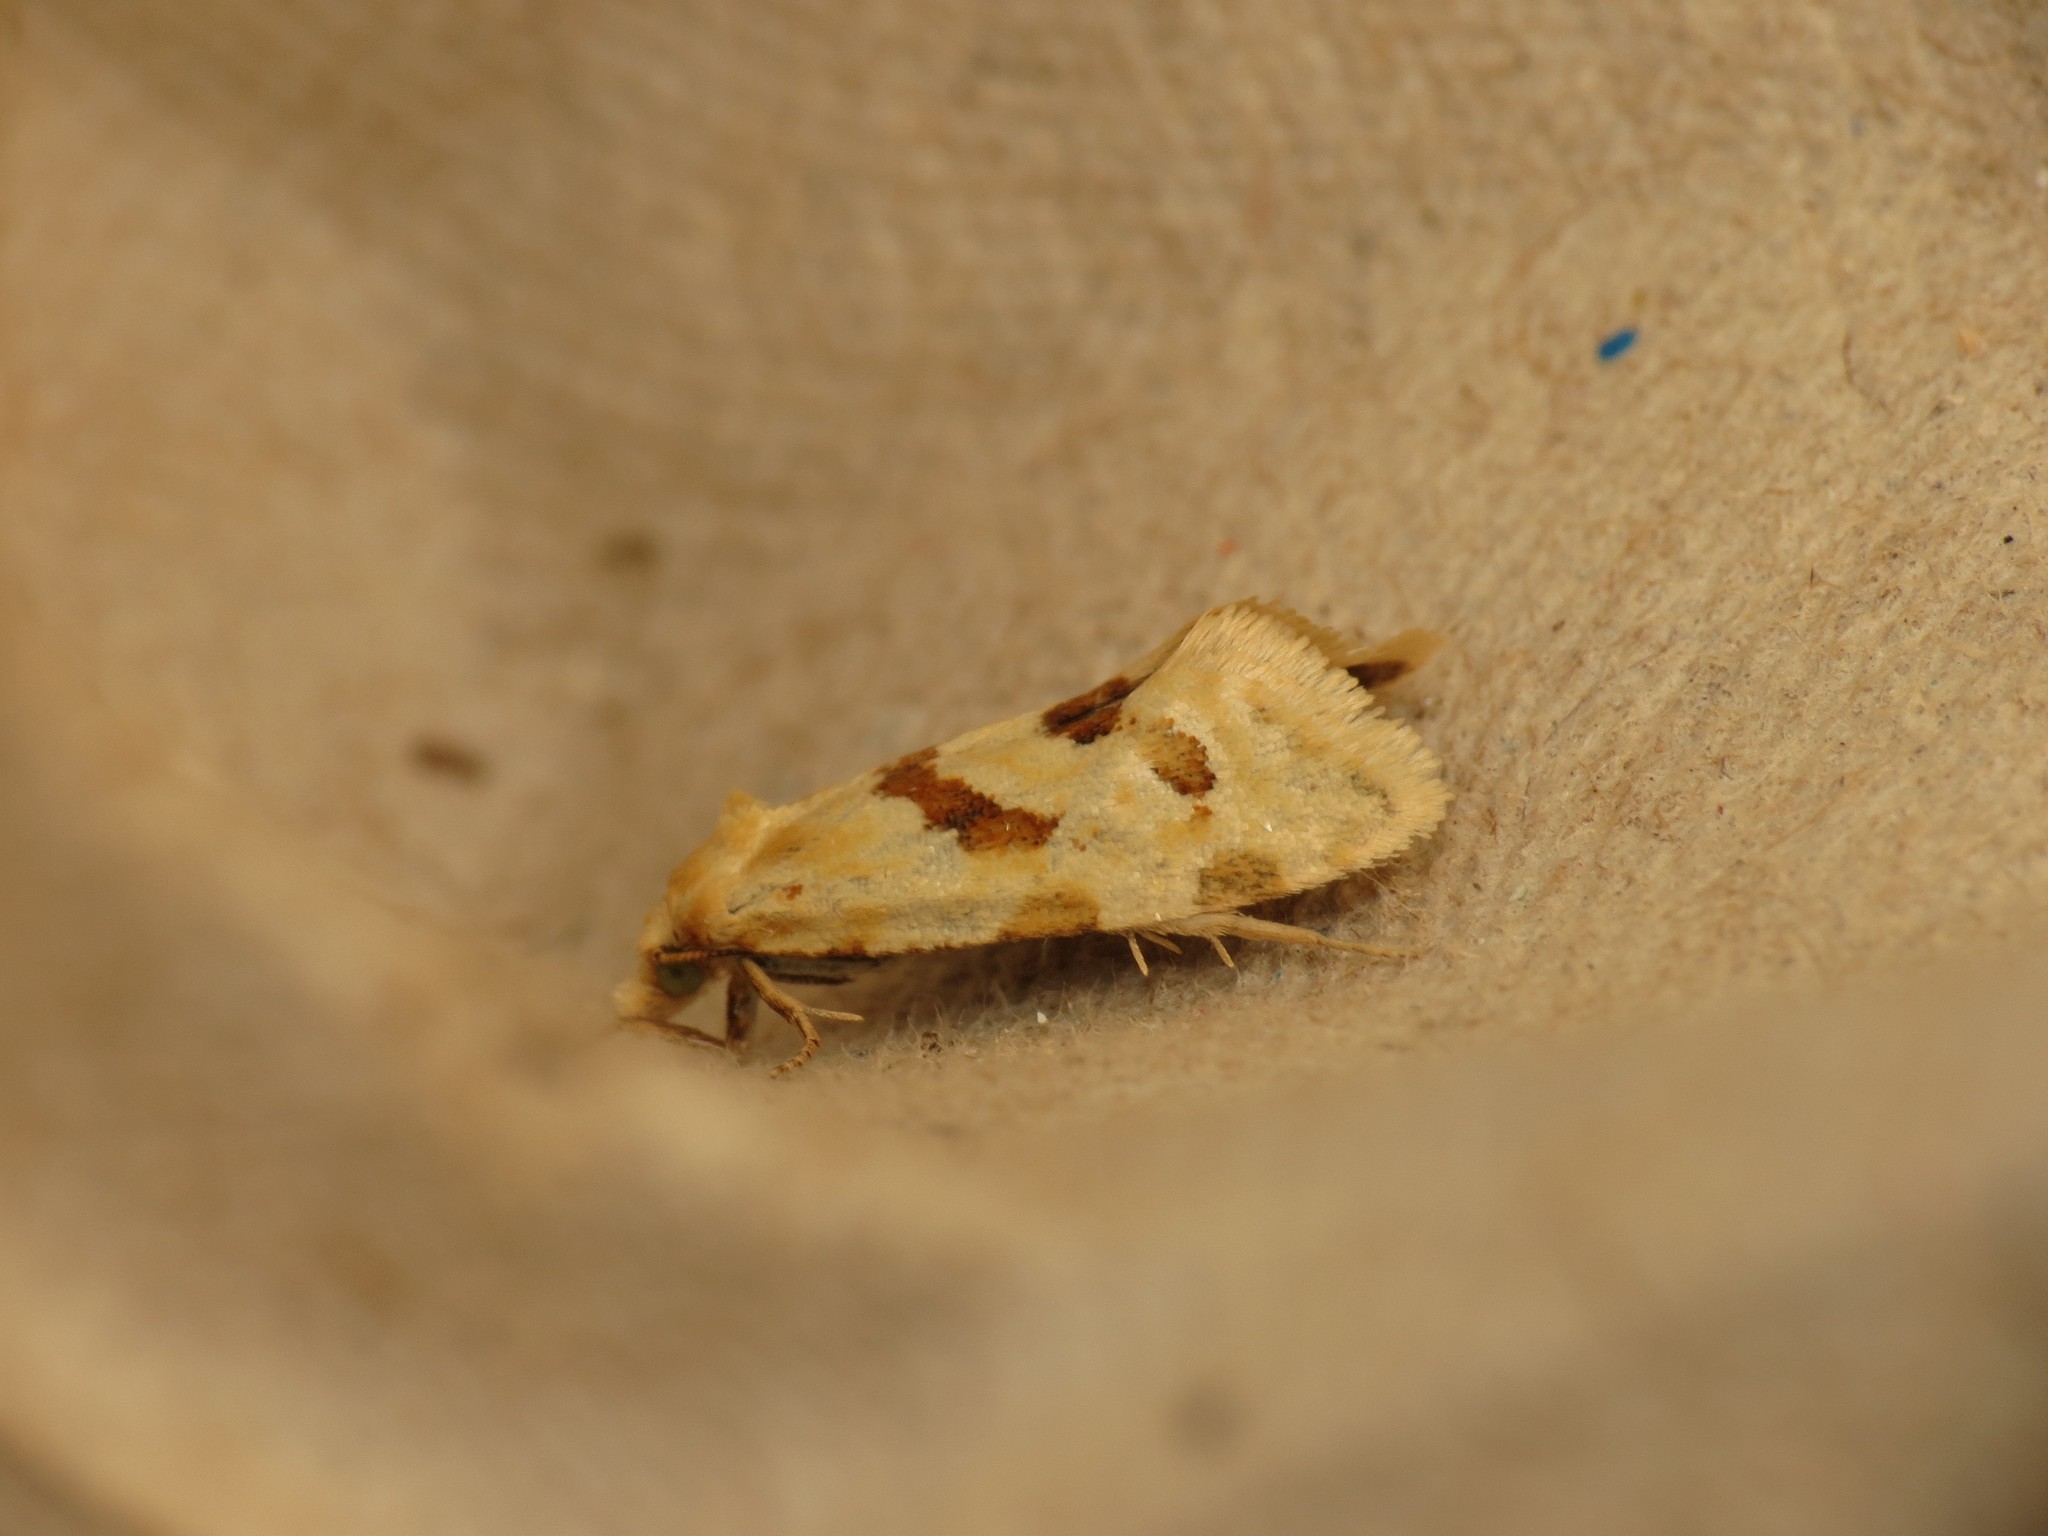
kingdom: Animalia
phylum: Arthropoda
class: Insecta
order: Lepidoptera
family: Tortricidae
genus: Aethes
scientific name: Aethes smeathmanniana
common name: Yarrow conch
